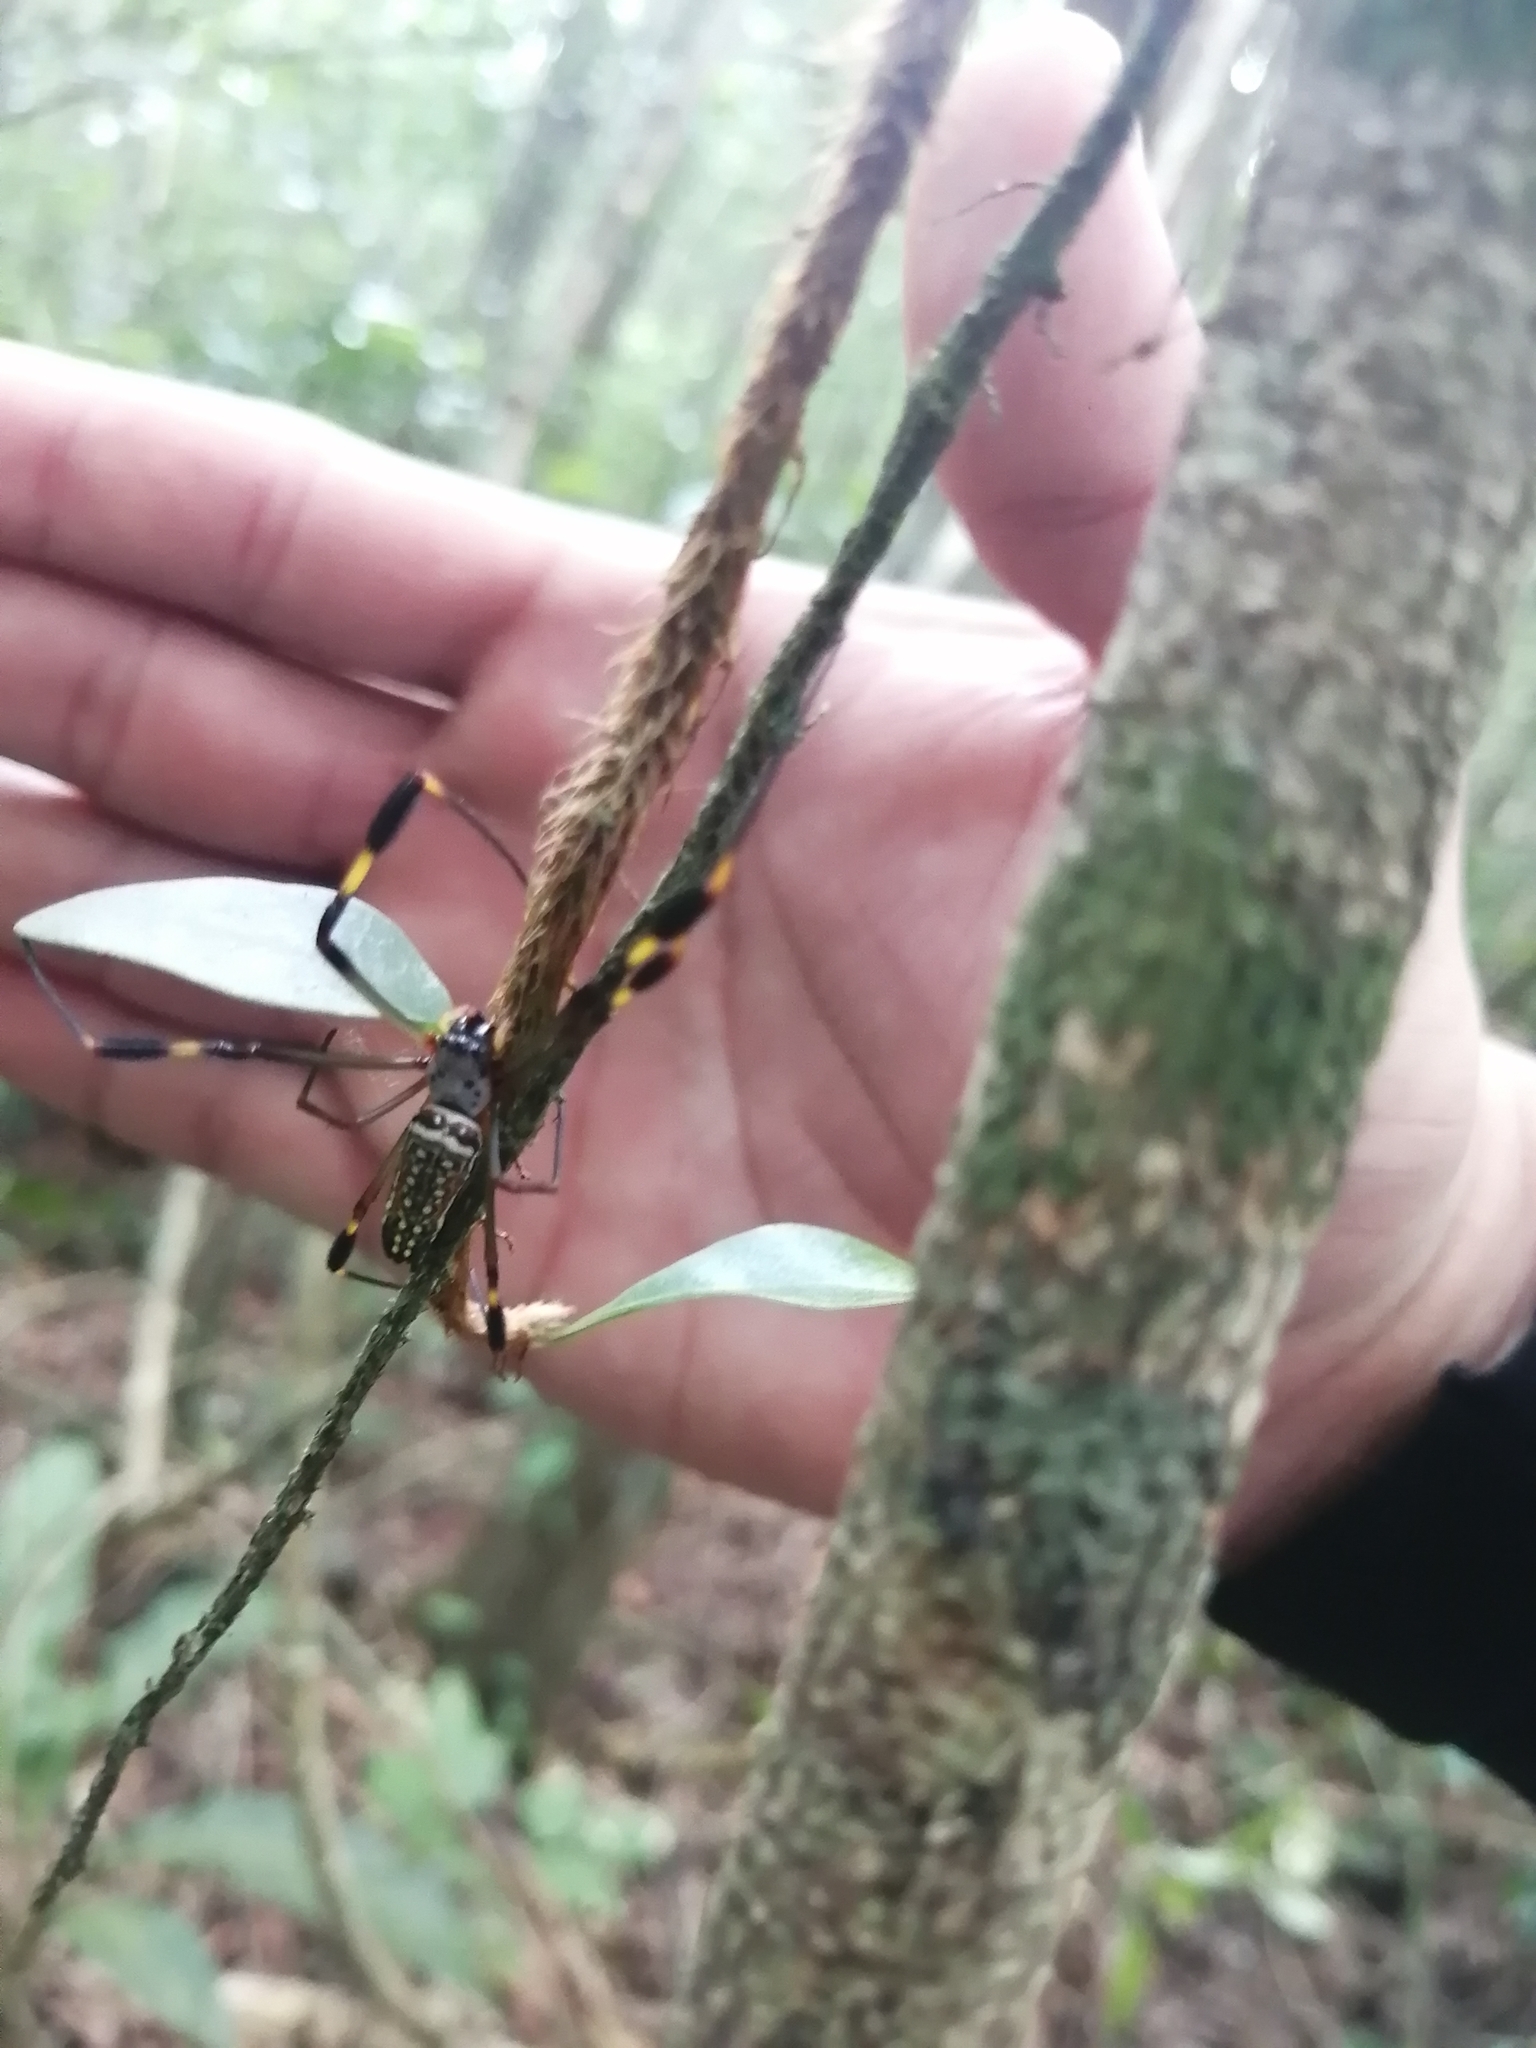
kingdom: Animalia
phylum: Arthropoda
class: Arachnida
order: Araneae
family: Araneidae
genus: Trichonephila
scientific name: Trichonephila clavipes
